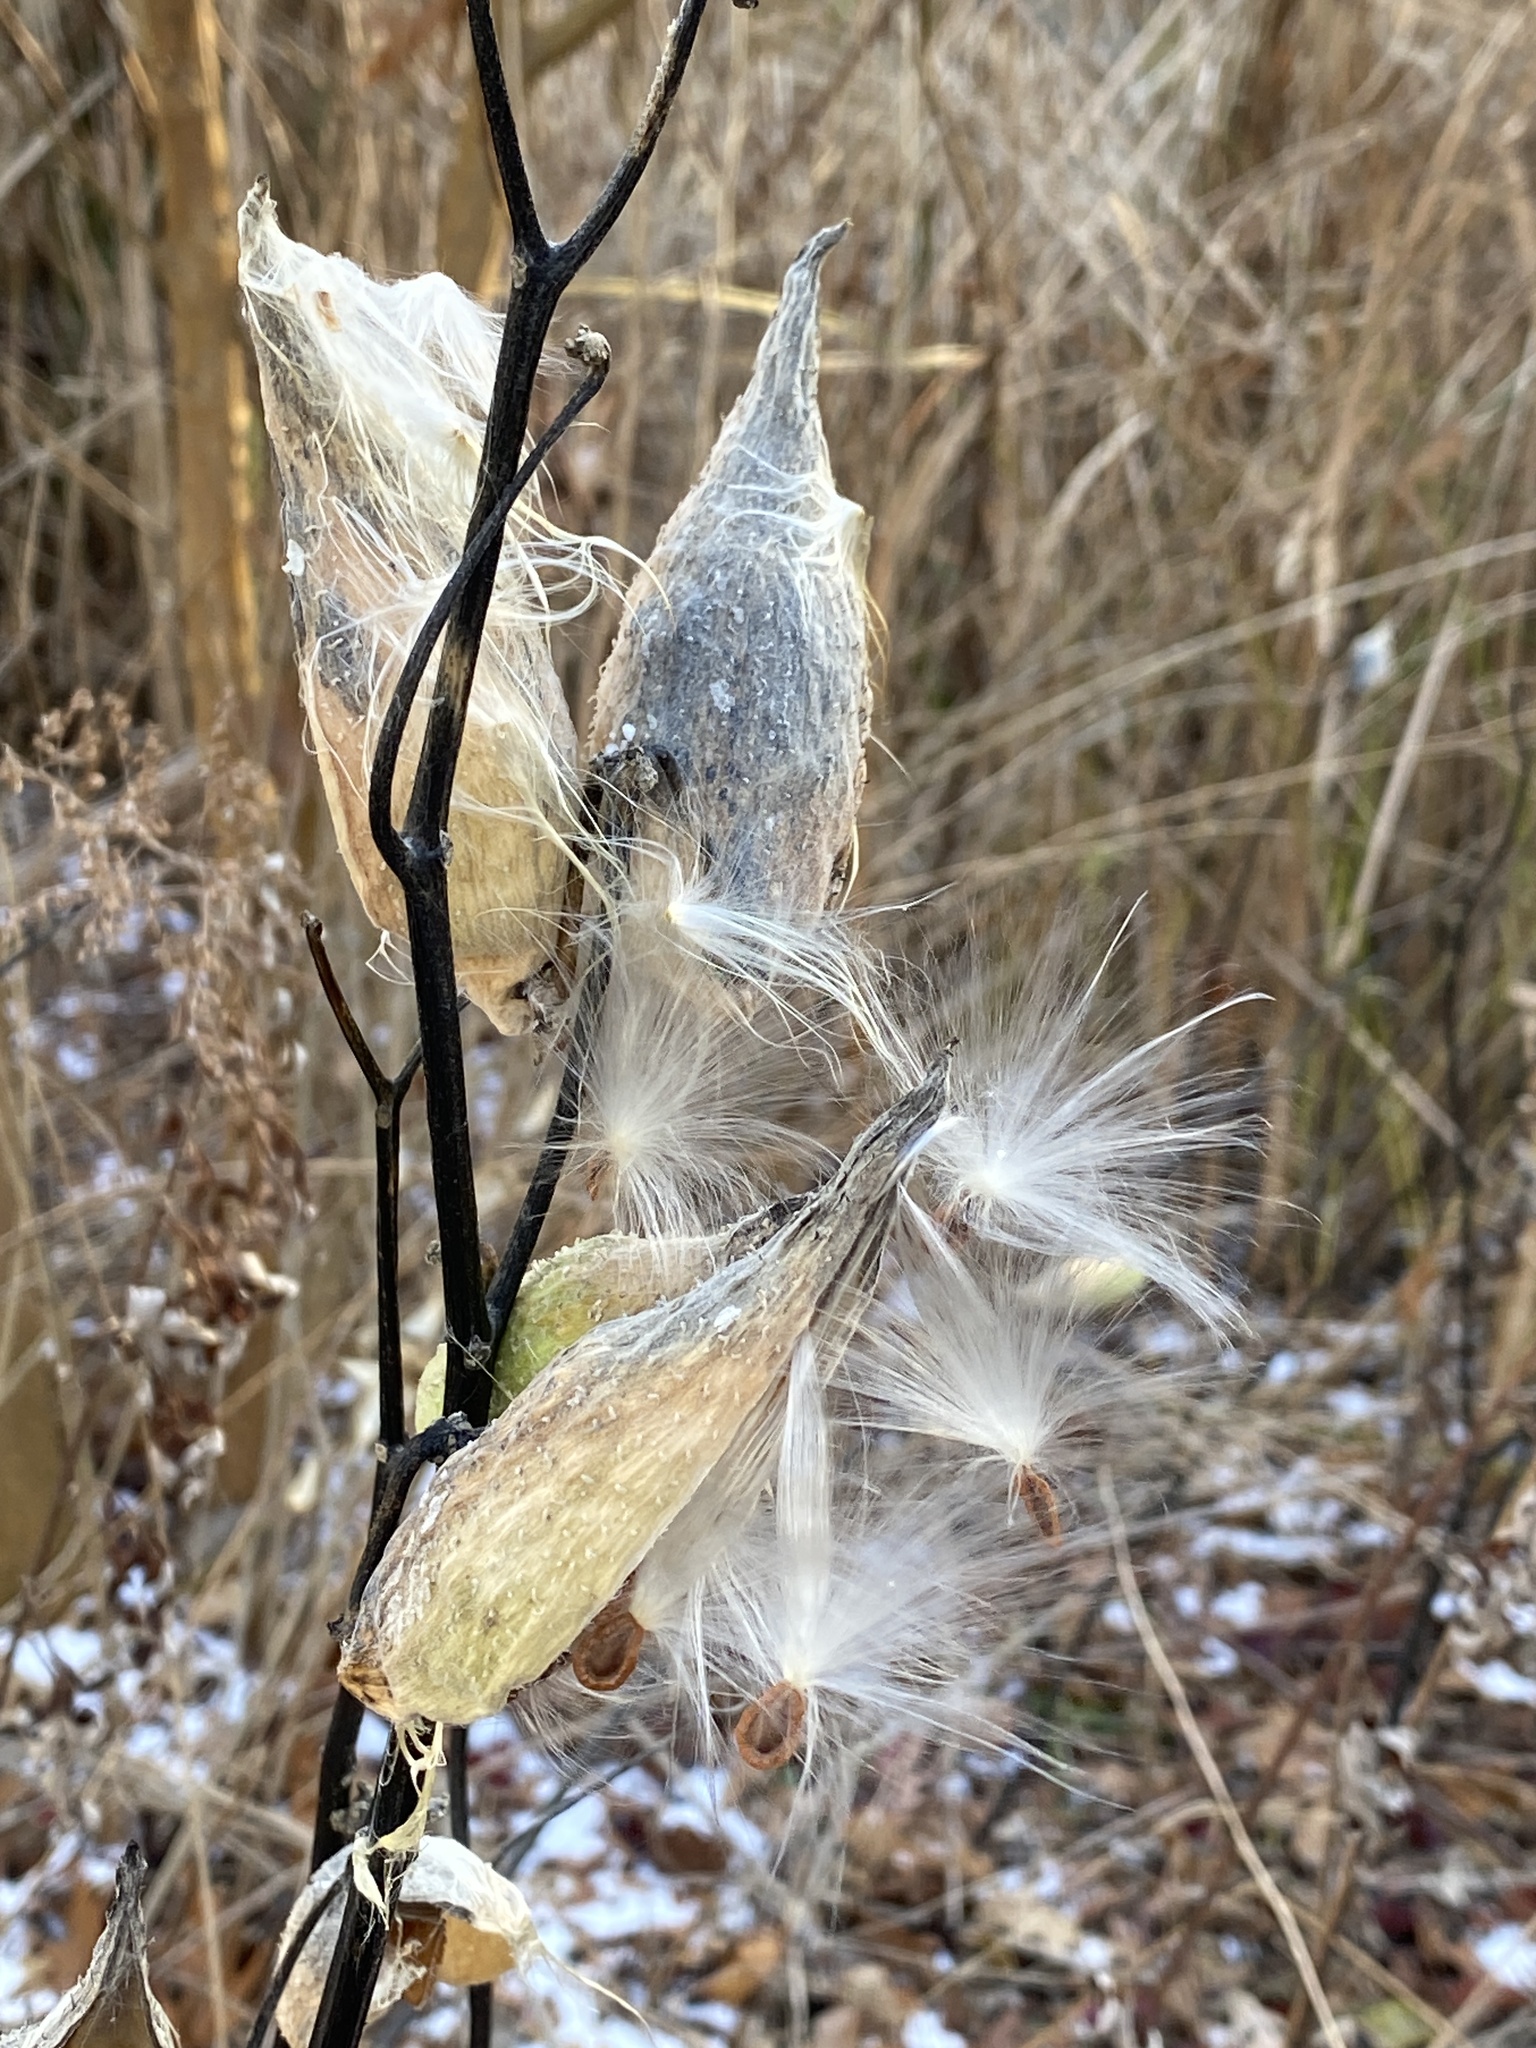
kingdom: Plantae
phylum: Tracheophyta
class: Magnoliopsida
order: Gentianales
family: Apocynaceae
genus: Asclepias
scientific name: Asclepias syriaca
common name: Common milkweed
